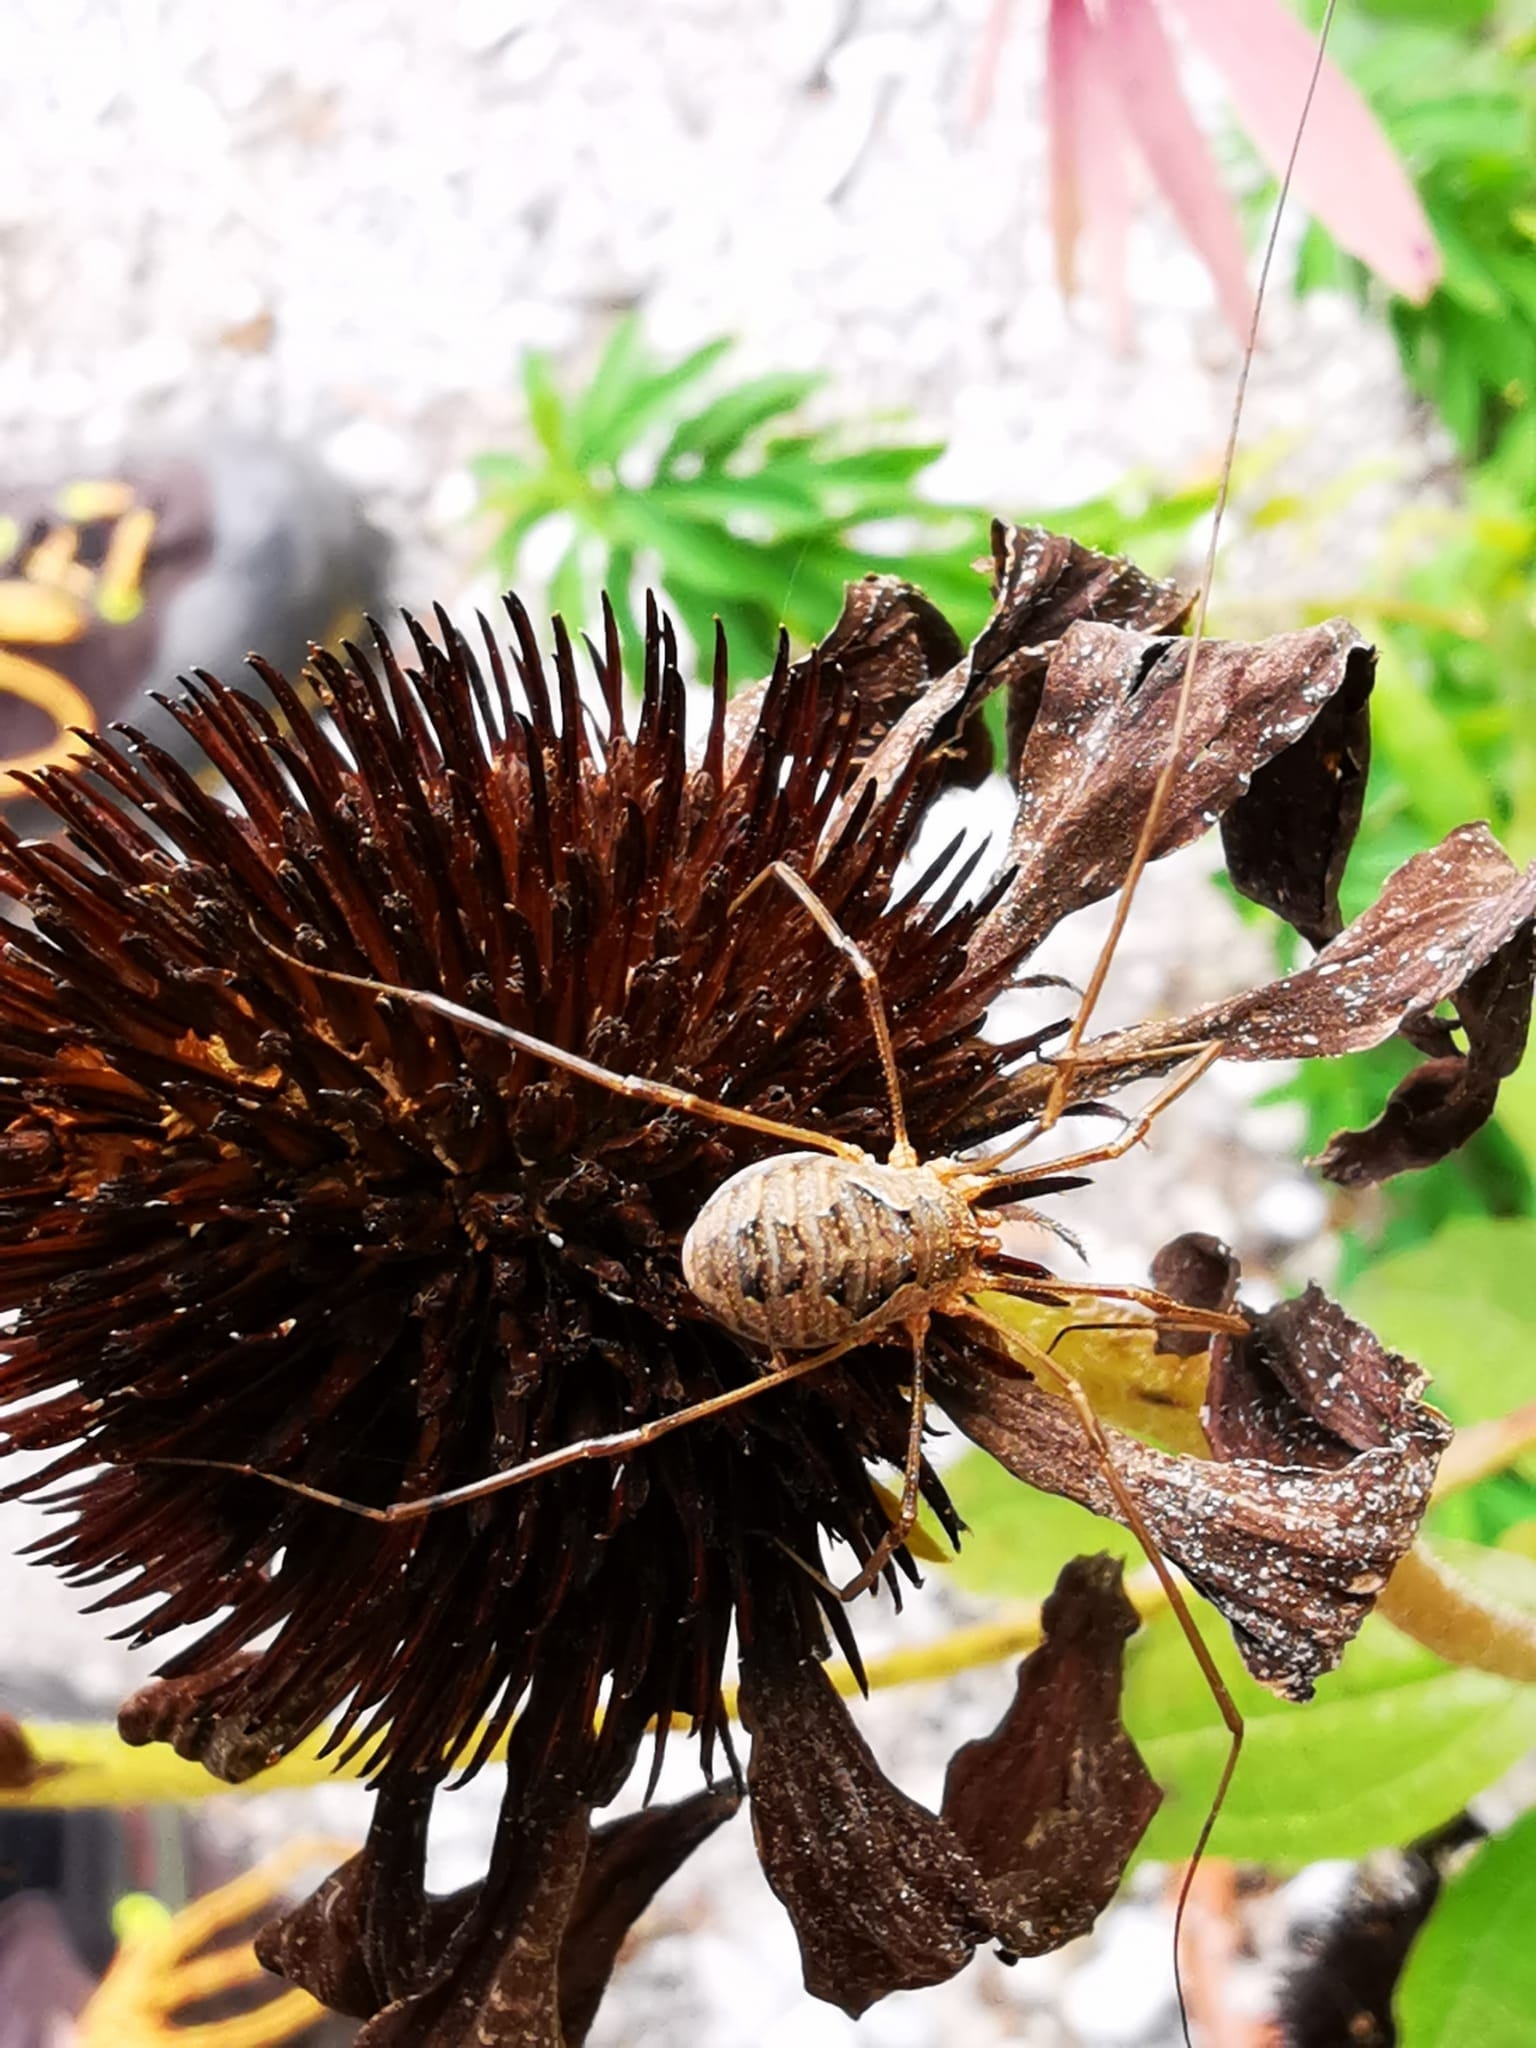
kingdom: Animalia
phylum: Arthropoda
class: Arachnida
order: Opiliones
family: Phalangiidae
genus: Phalangium
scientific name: Phalangium opilio
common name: Daddy longleg
